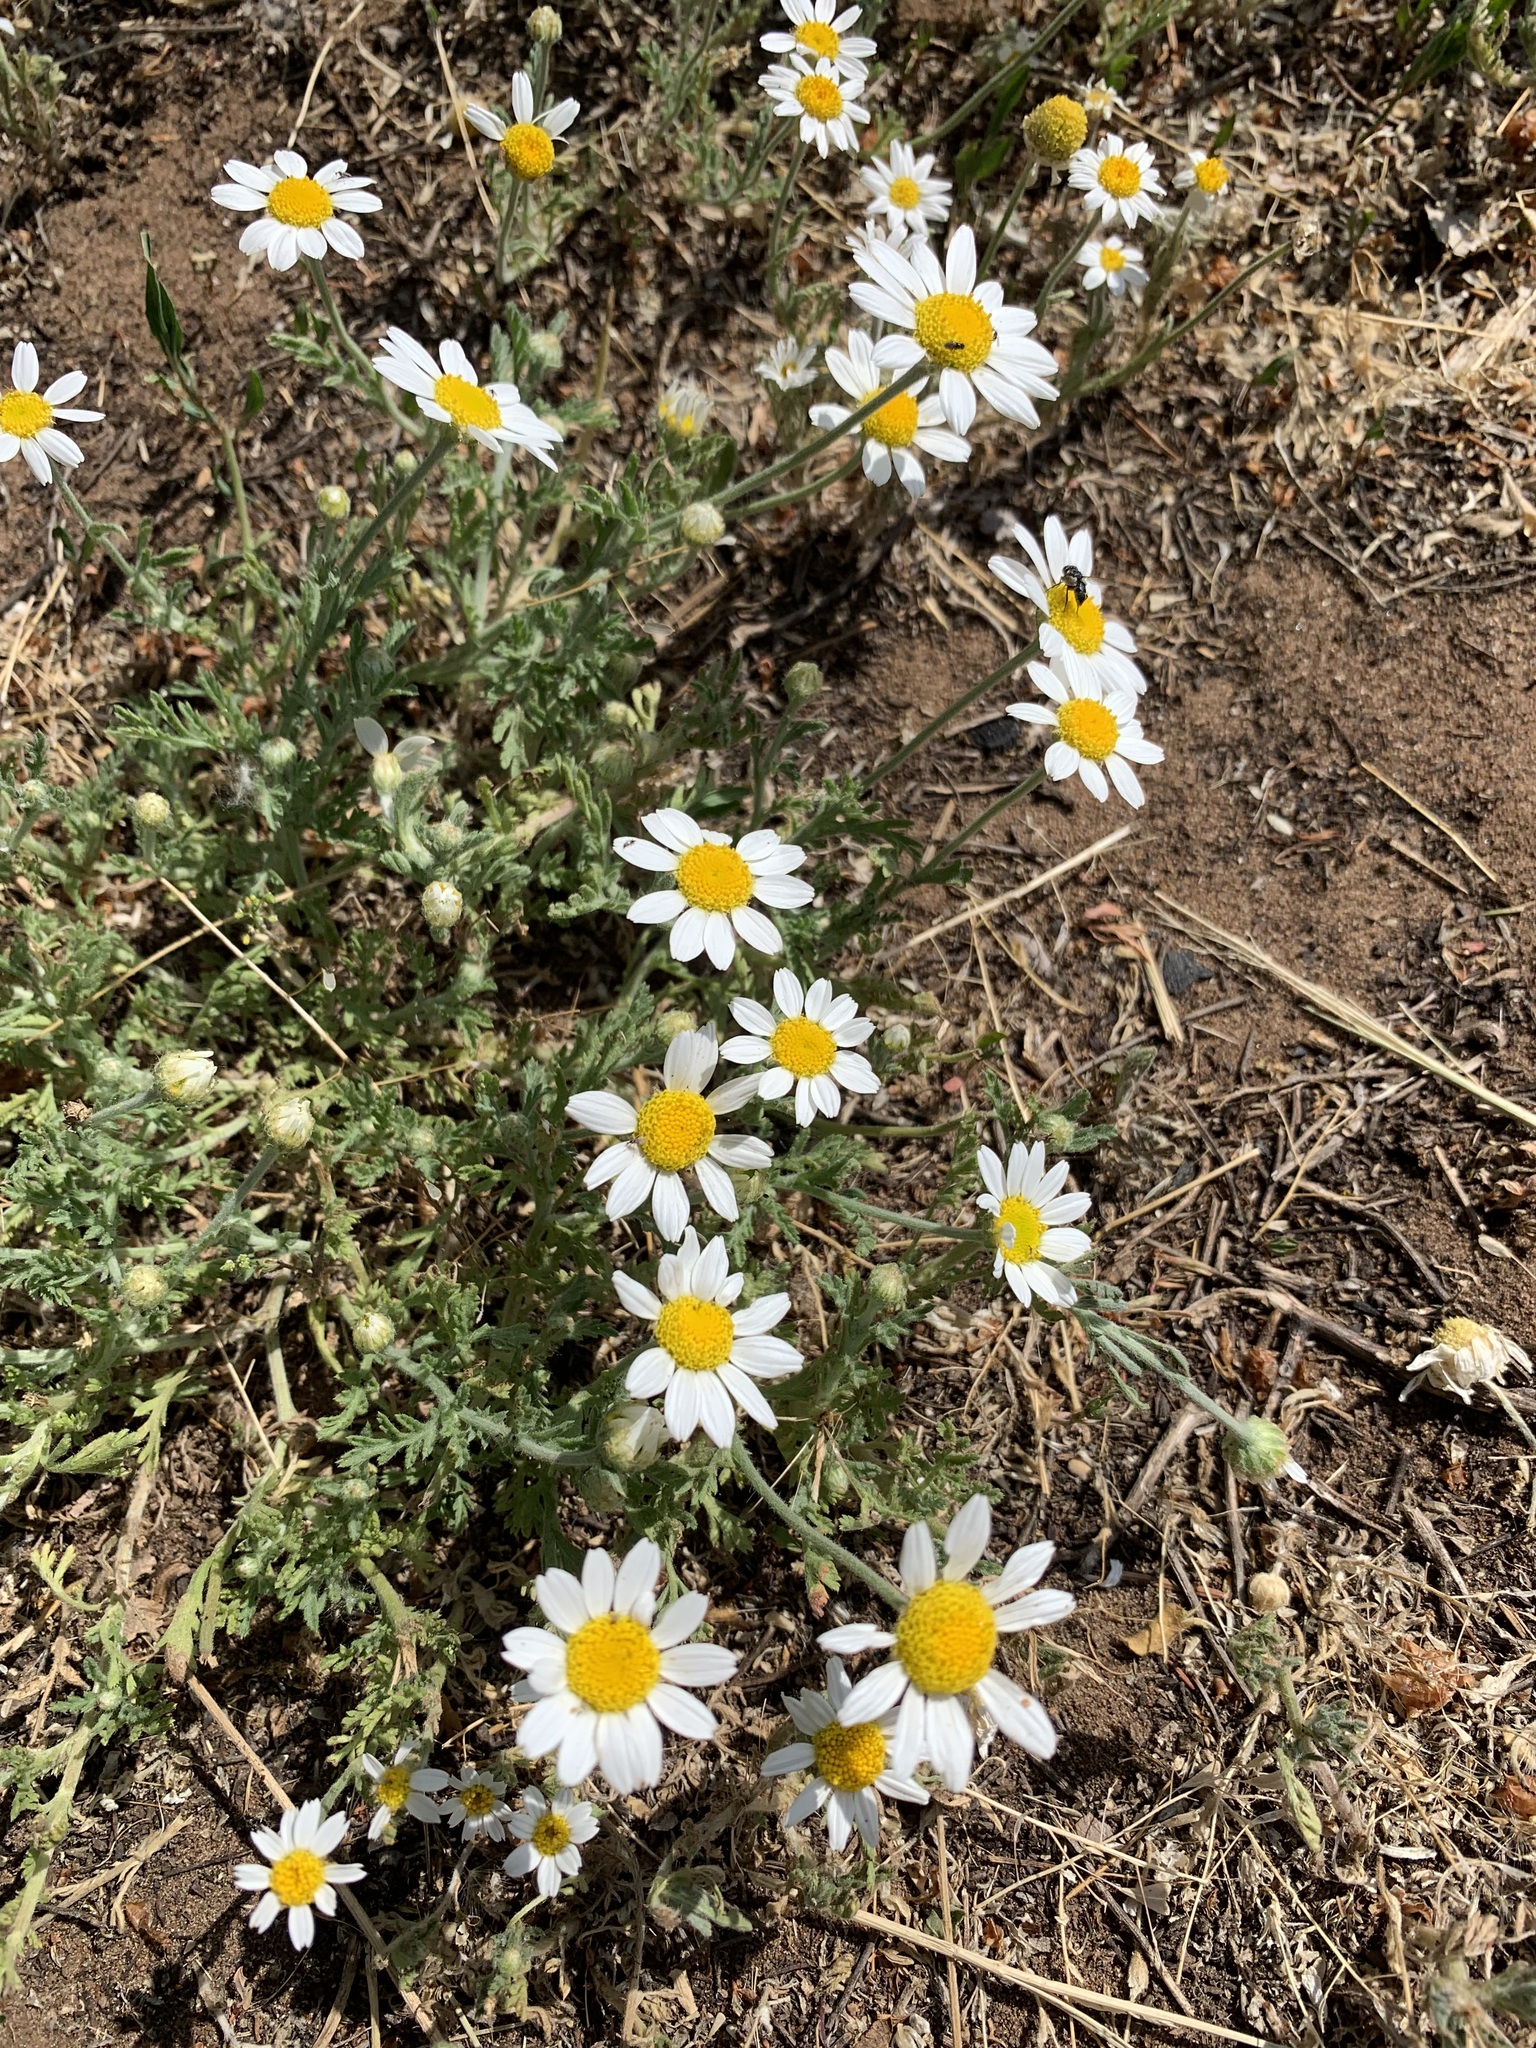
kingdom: Plantae
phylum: Tracheophyta
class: Magnoliopsida
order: Asterales
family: Asteraceae
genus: Anthemis
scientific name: Anthemis ruthenica
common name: Eastern chamomile
